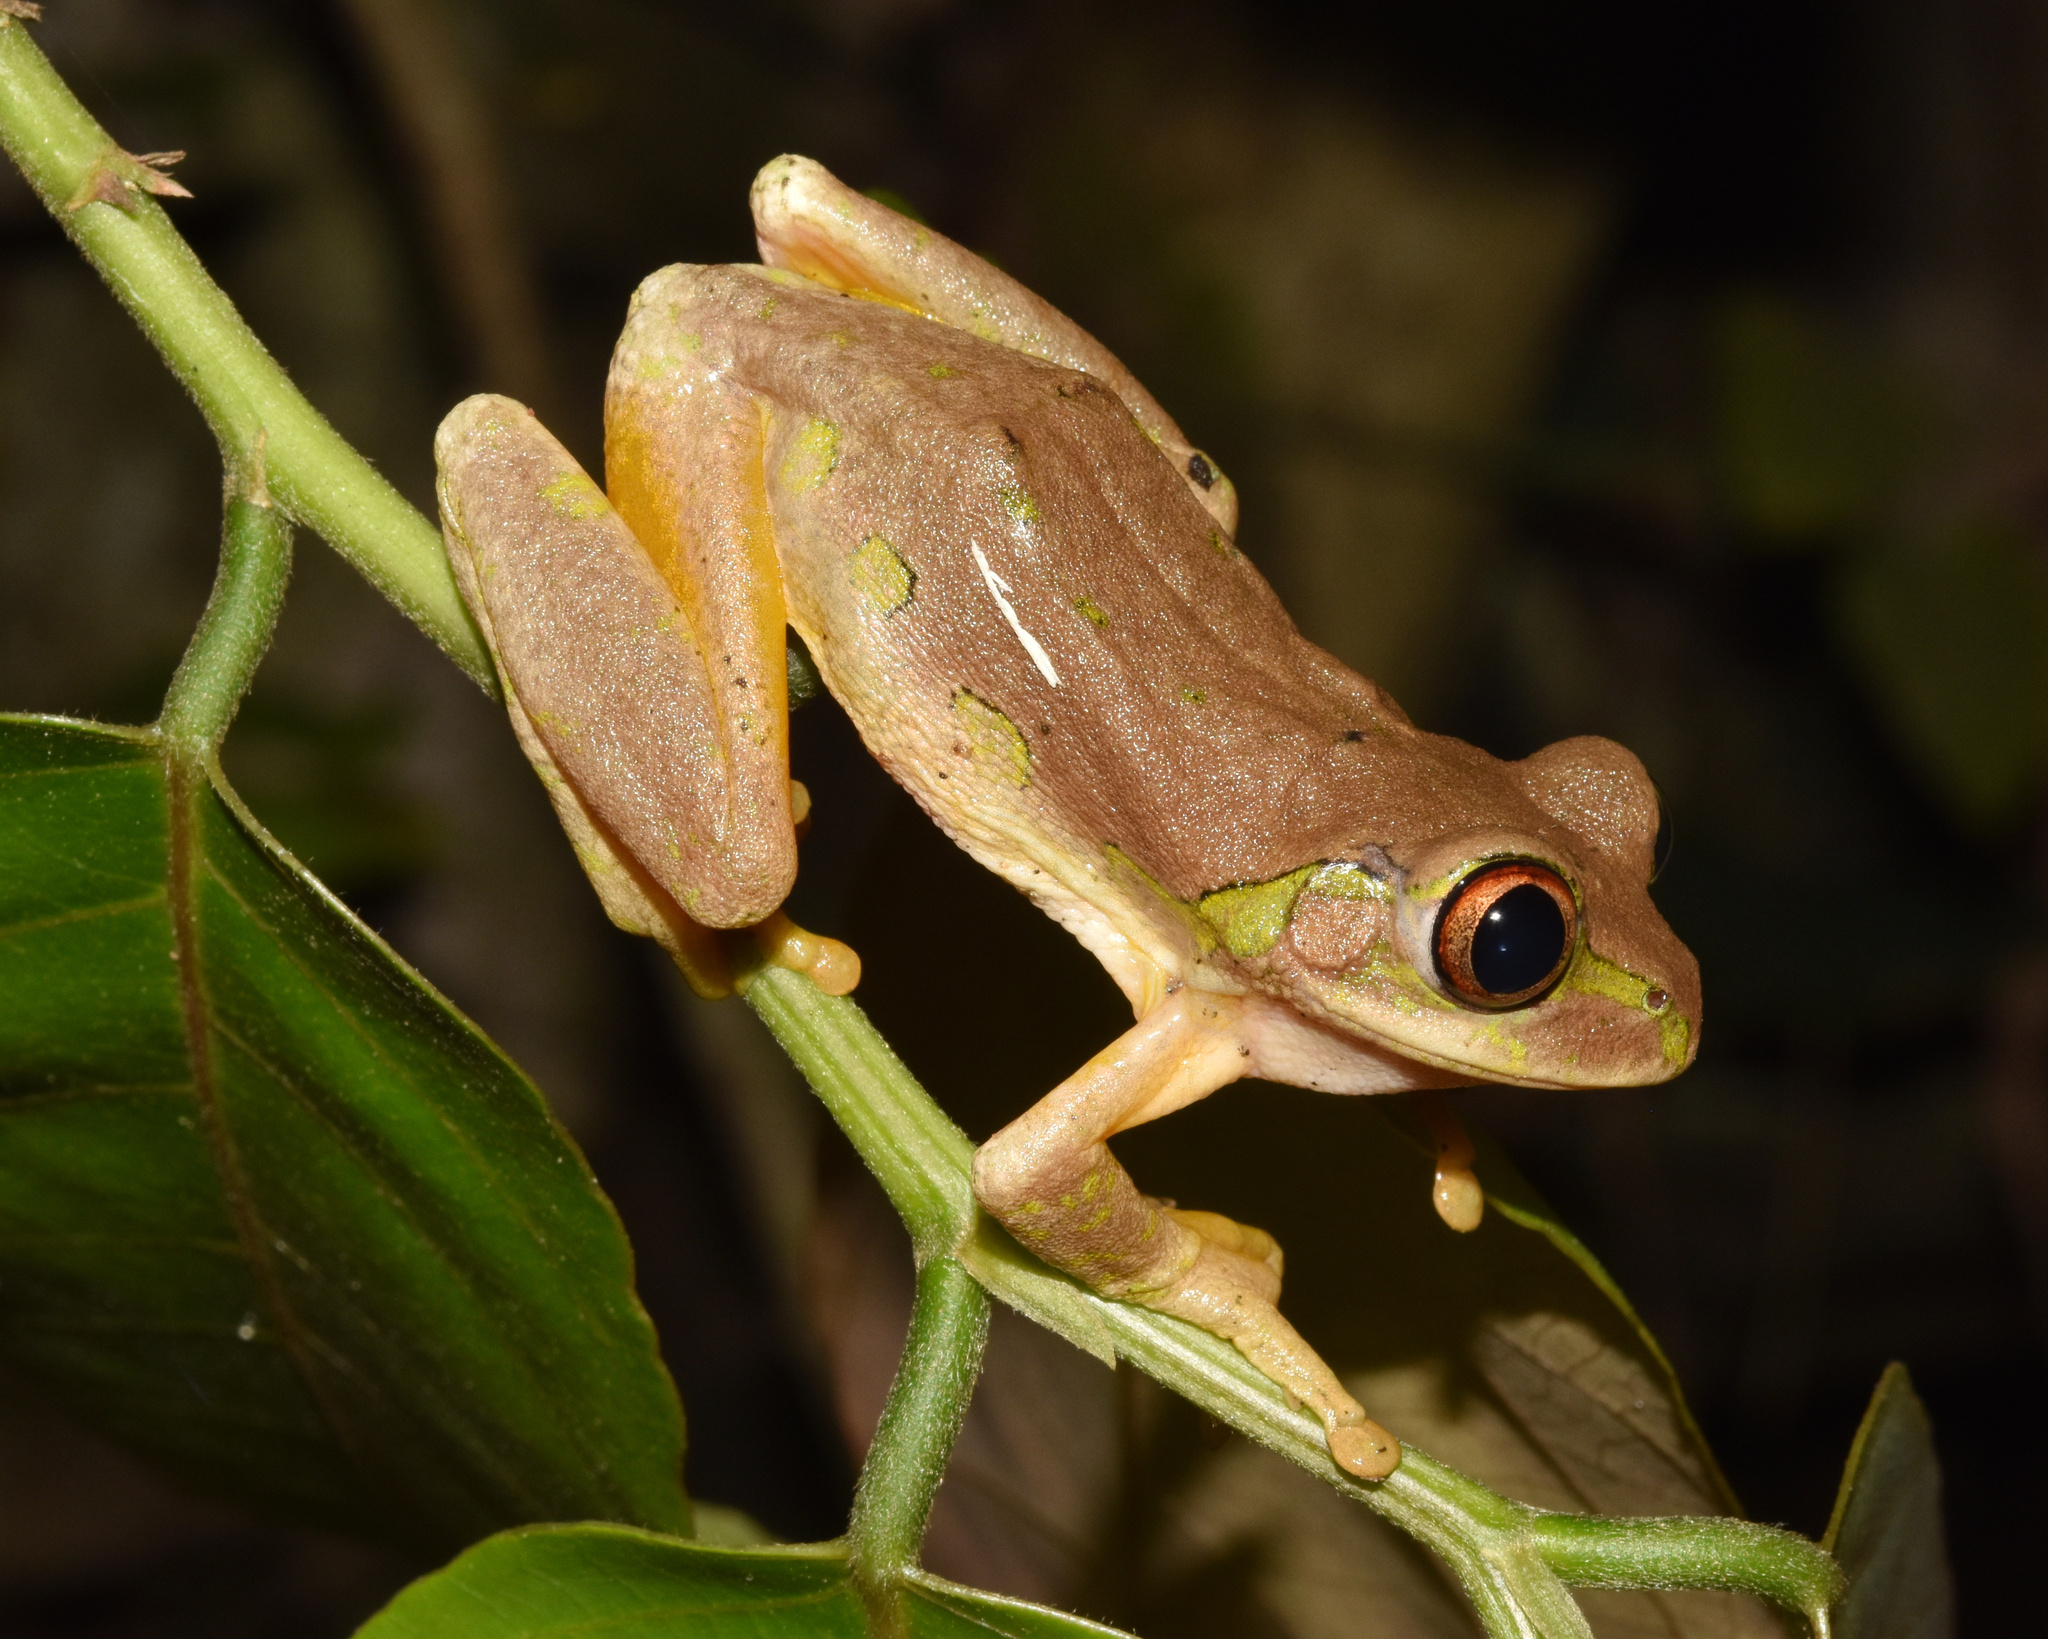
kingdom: Animalia
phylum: Chordata
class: Amphibia
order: Anura
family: Arthroleptidae
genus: Leptopelis
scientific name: Leptopelis natalensis
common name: Natal tree frog
